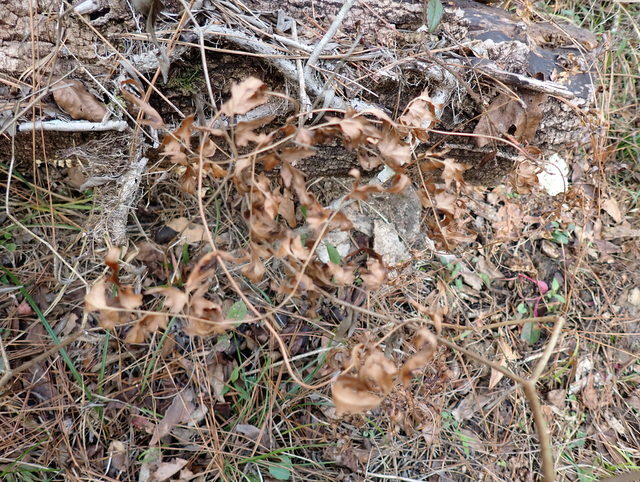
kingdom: Plantae
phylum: Tracheophyta
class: Polypodiopsida
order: Schizaeales
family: Lygodiaceae
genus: Lygodium
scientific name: Lygodium japonicum
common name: Japanese climbing fern
